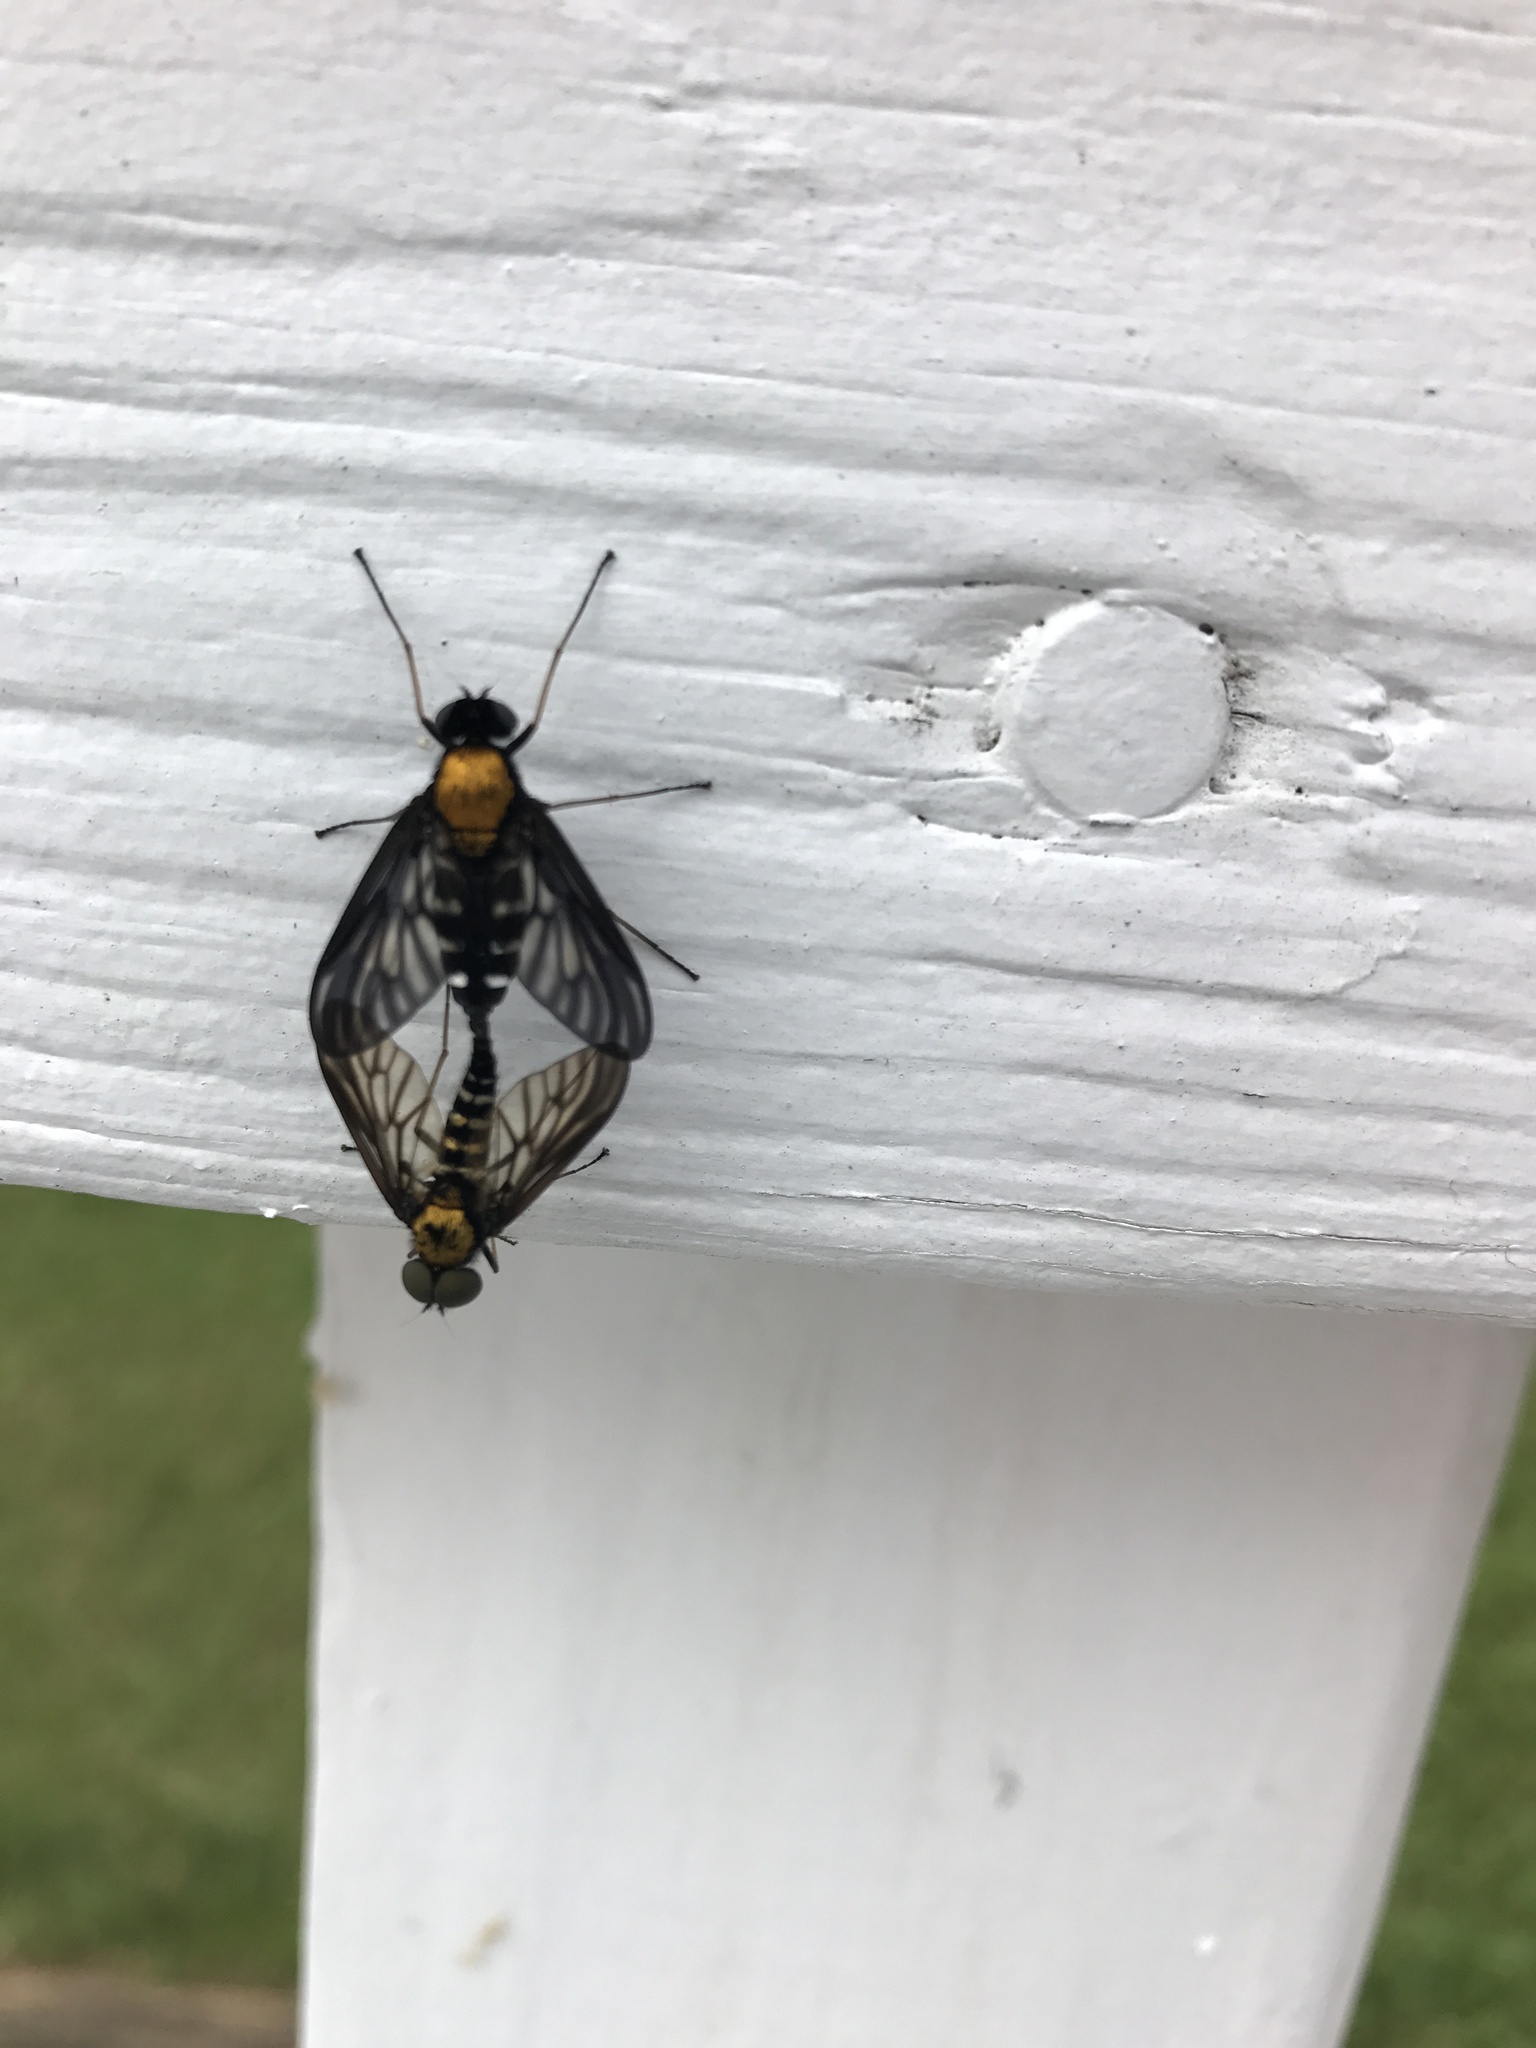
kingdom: Animalia
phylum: Arthropoda
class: Insecta
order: Diptera
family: Rhagionidae
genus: Chrysopilus
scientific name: Chrysopilus thoracicus
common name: Golden-backed snipe fly
